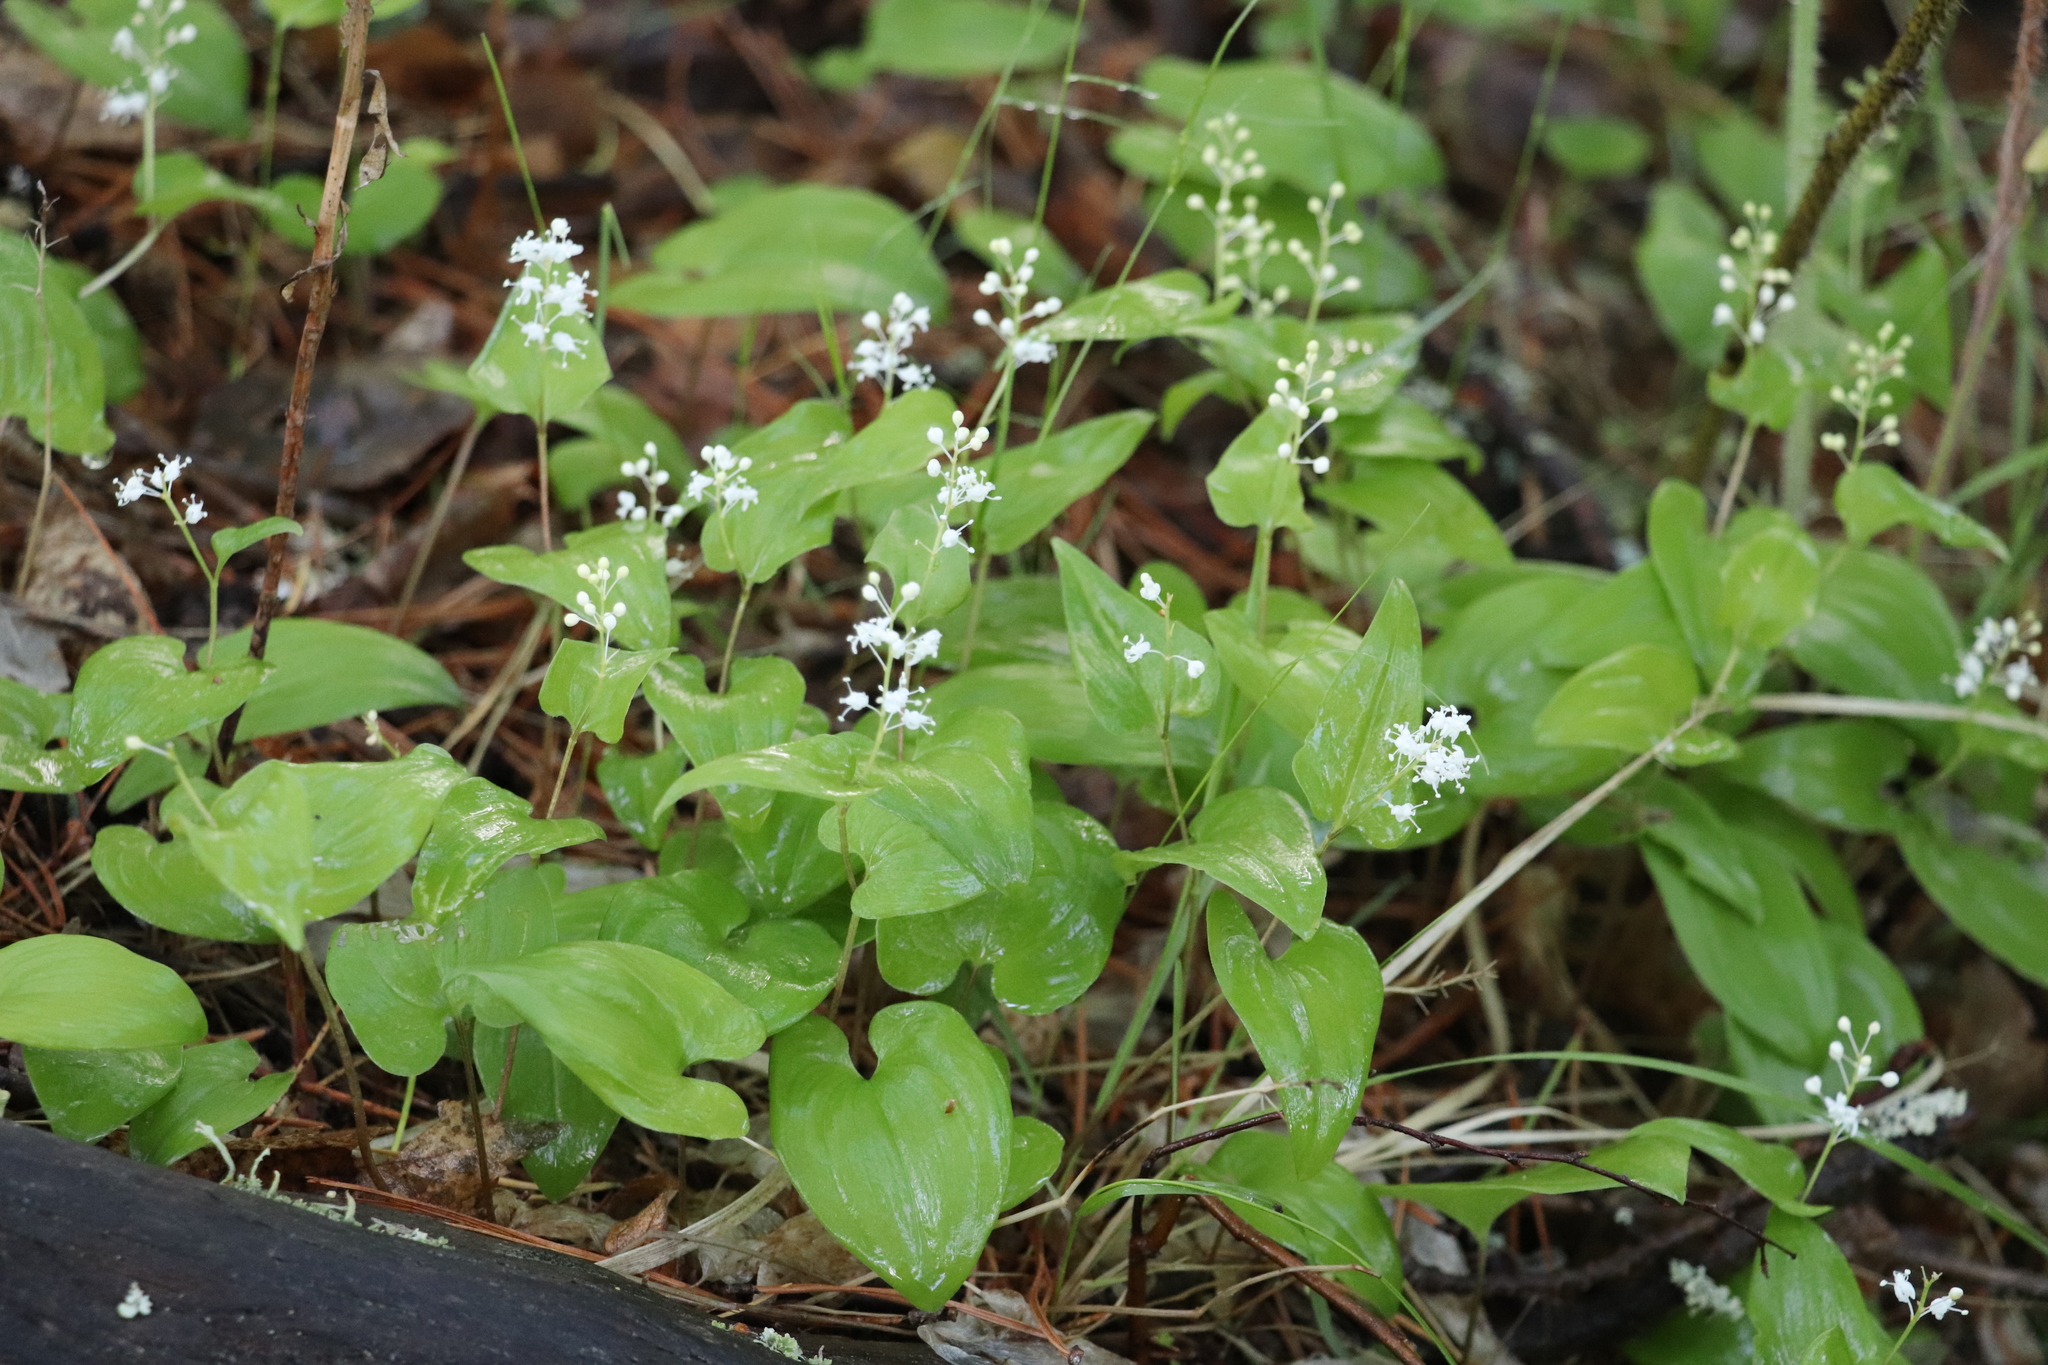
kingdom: Plantae
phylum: Tracheophyta
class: Liliopsida
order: Asparagales
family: Asparagaceae
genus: Maianthemum
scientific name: Maianthemum bifolium
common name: May lily
